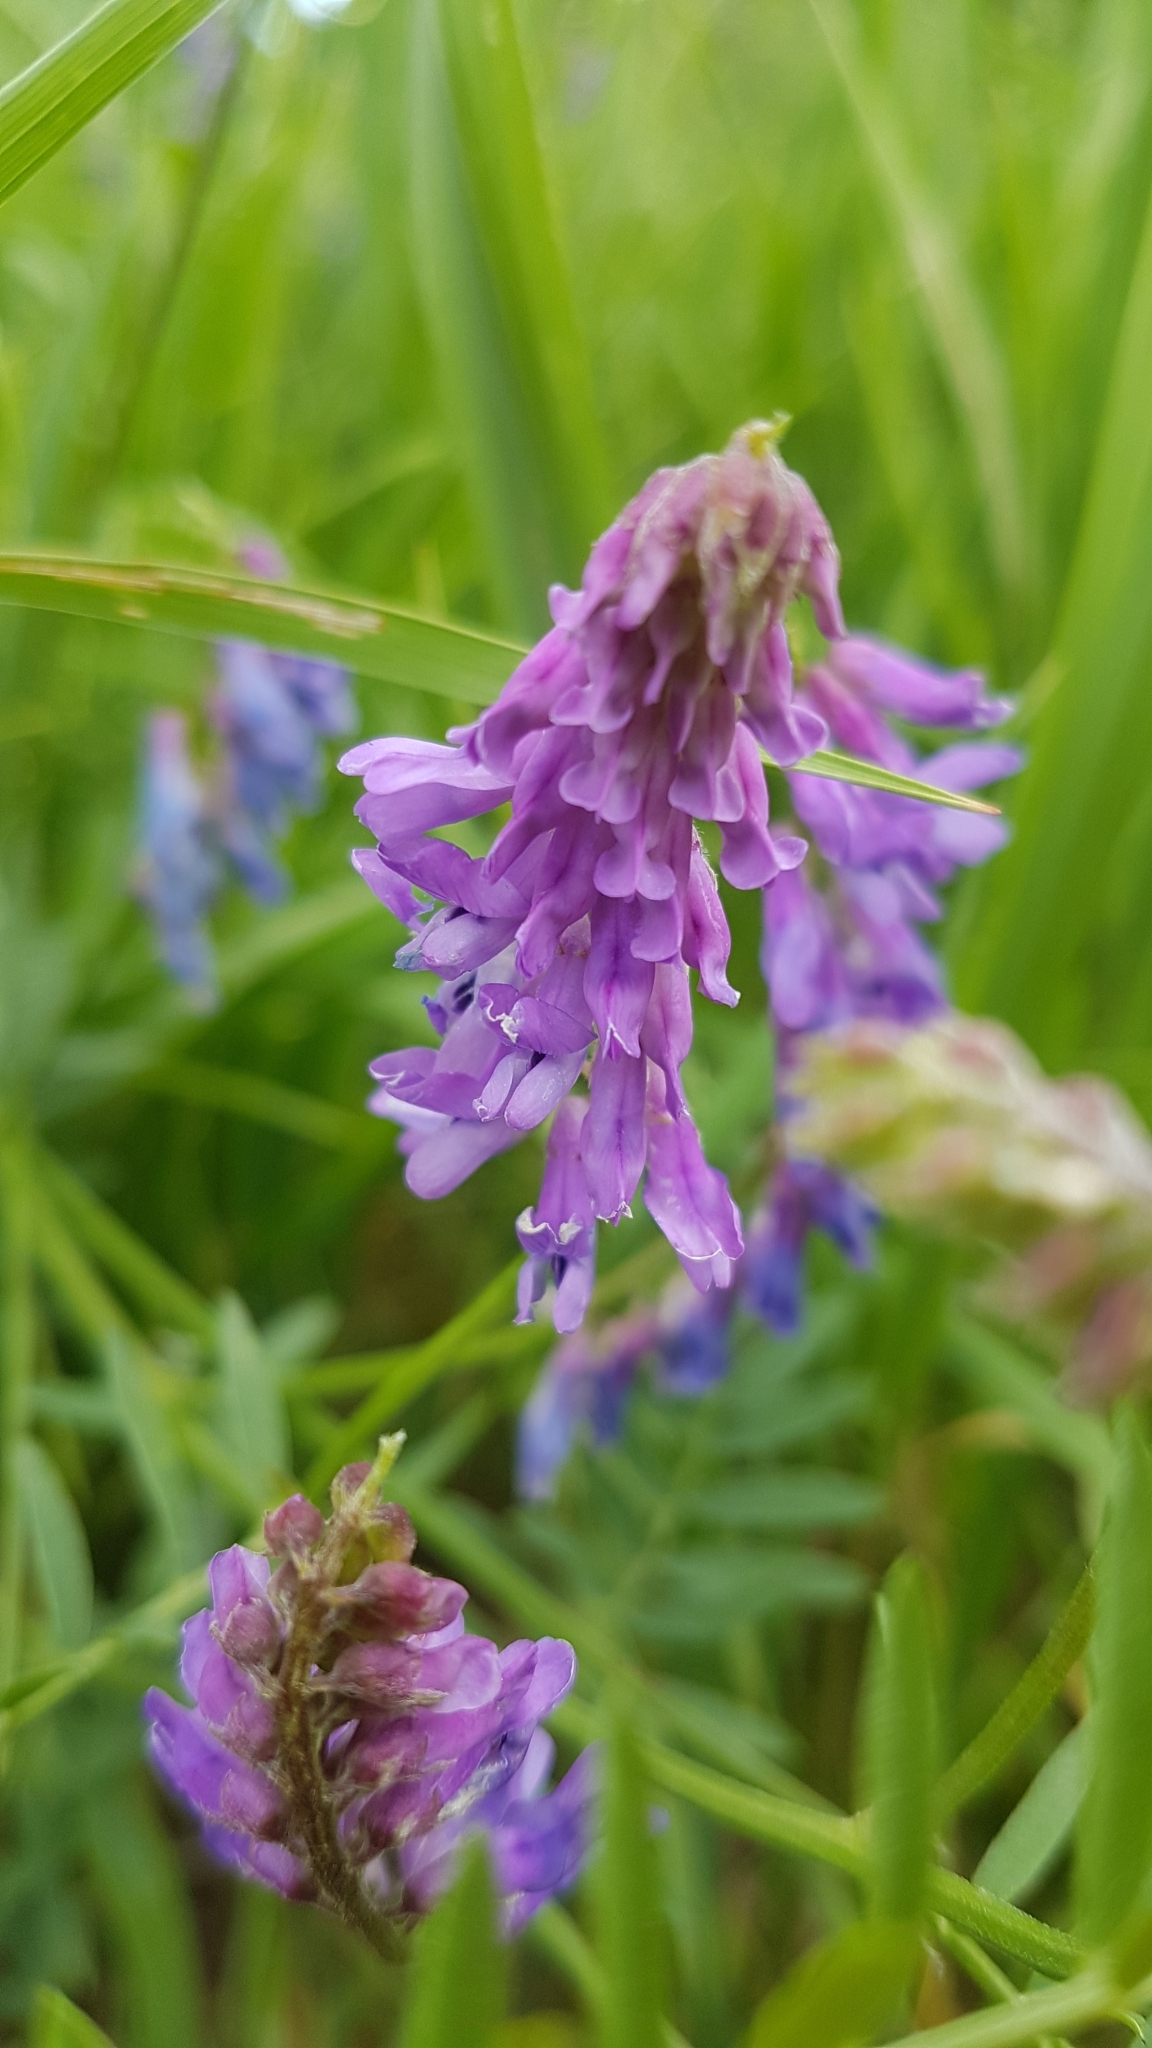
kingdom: Plantae
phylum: Tracheophyta
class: Magnoliopsida
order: Fabales
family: Fabaceae
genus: Vicia
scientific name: Vicia cracca
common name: Bird vetch
